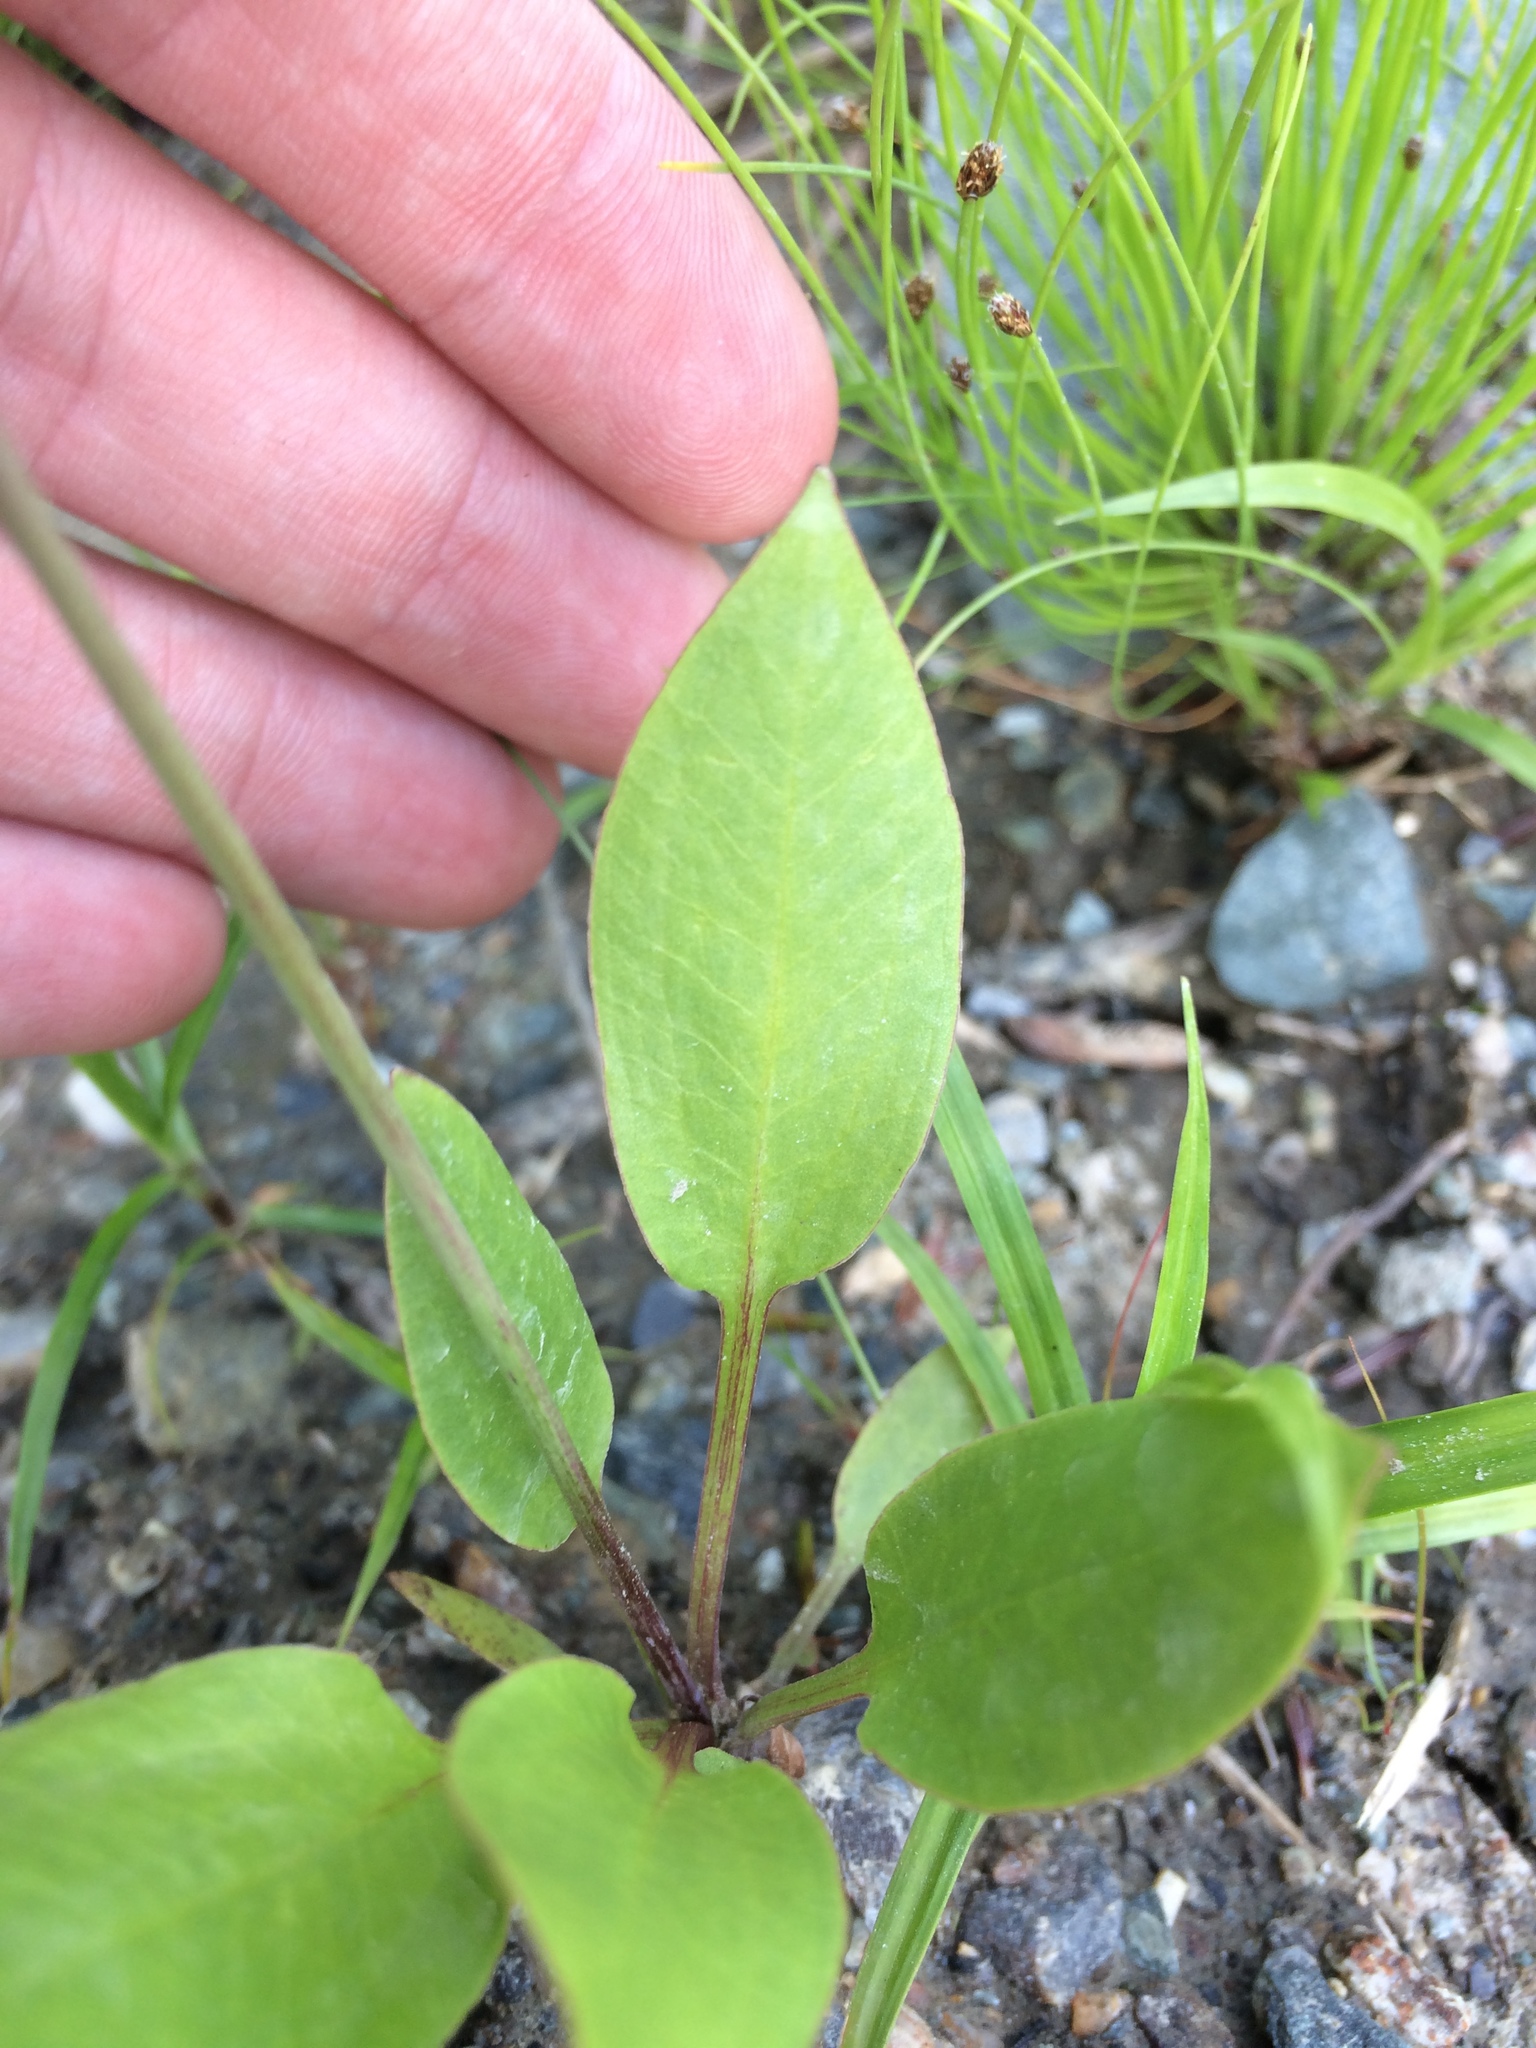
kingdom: Plantae
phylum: Tracheophyta
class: Liliopsida
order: Alismatales
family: Alismataceae
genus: Alisma
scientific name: Alisma triviale
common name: Northern water-plantain
